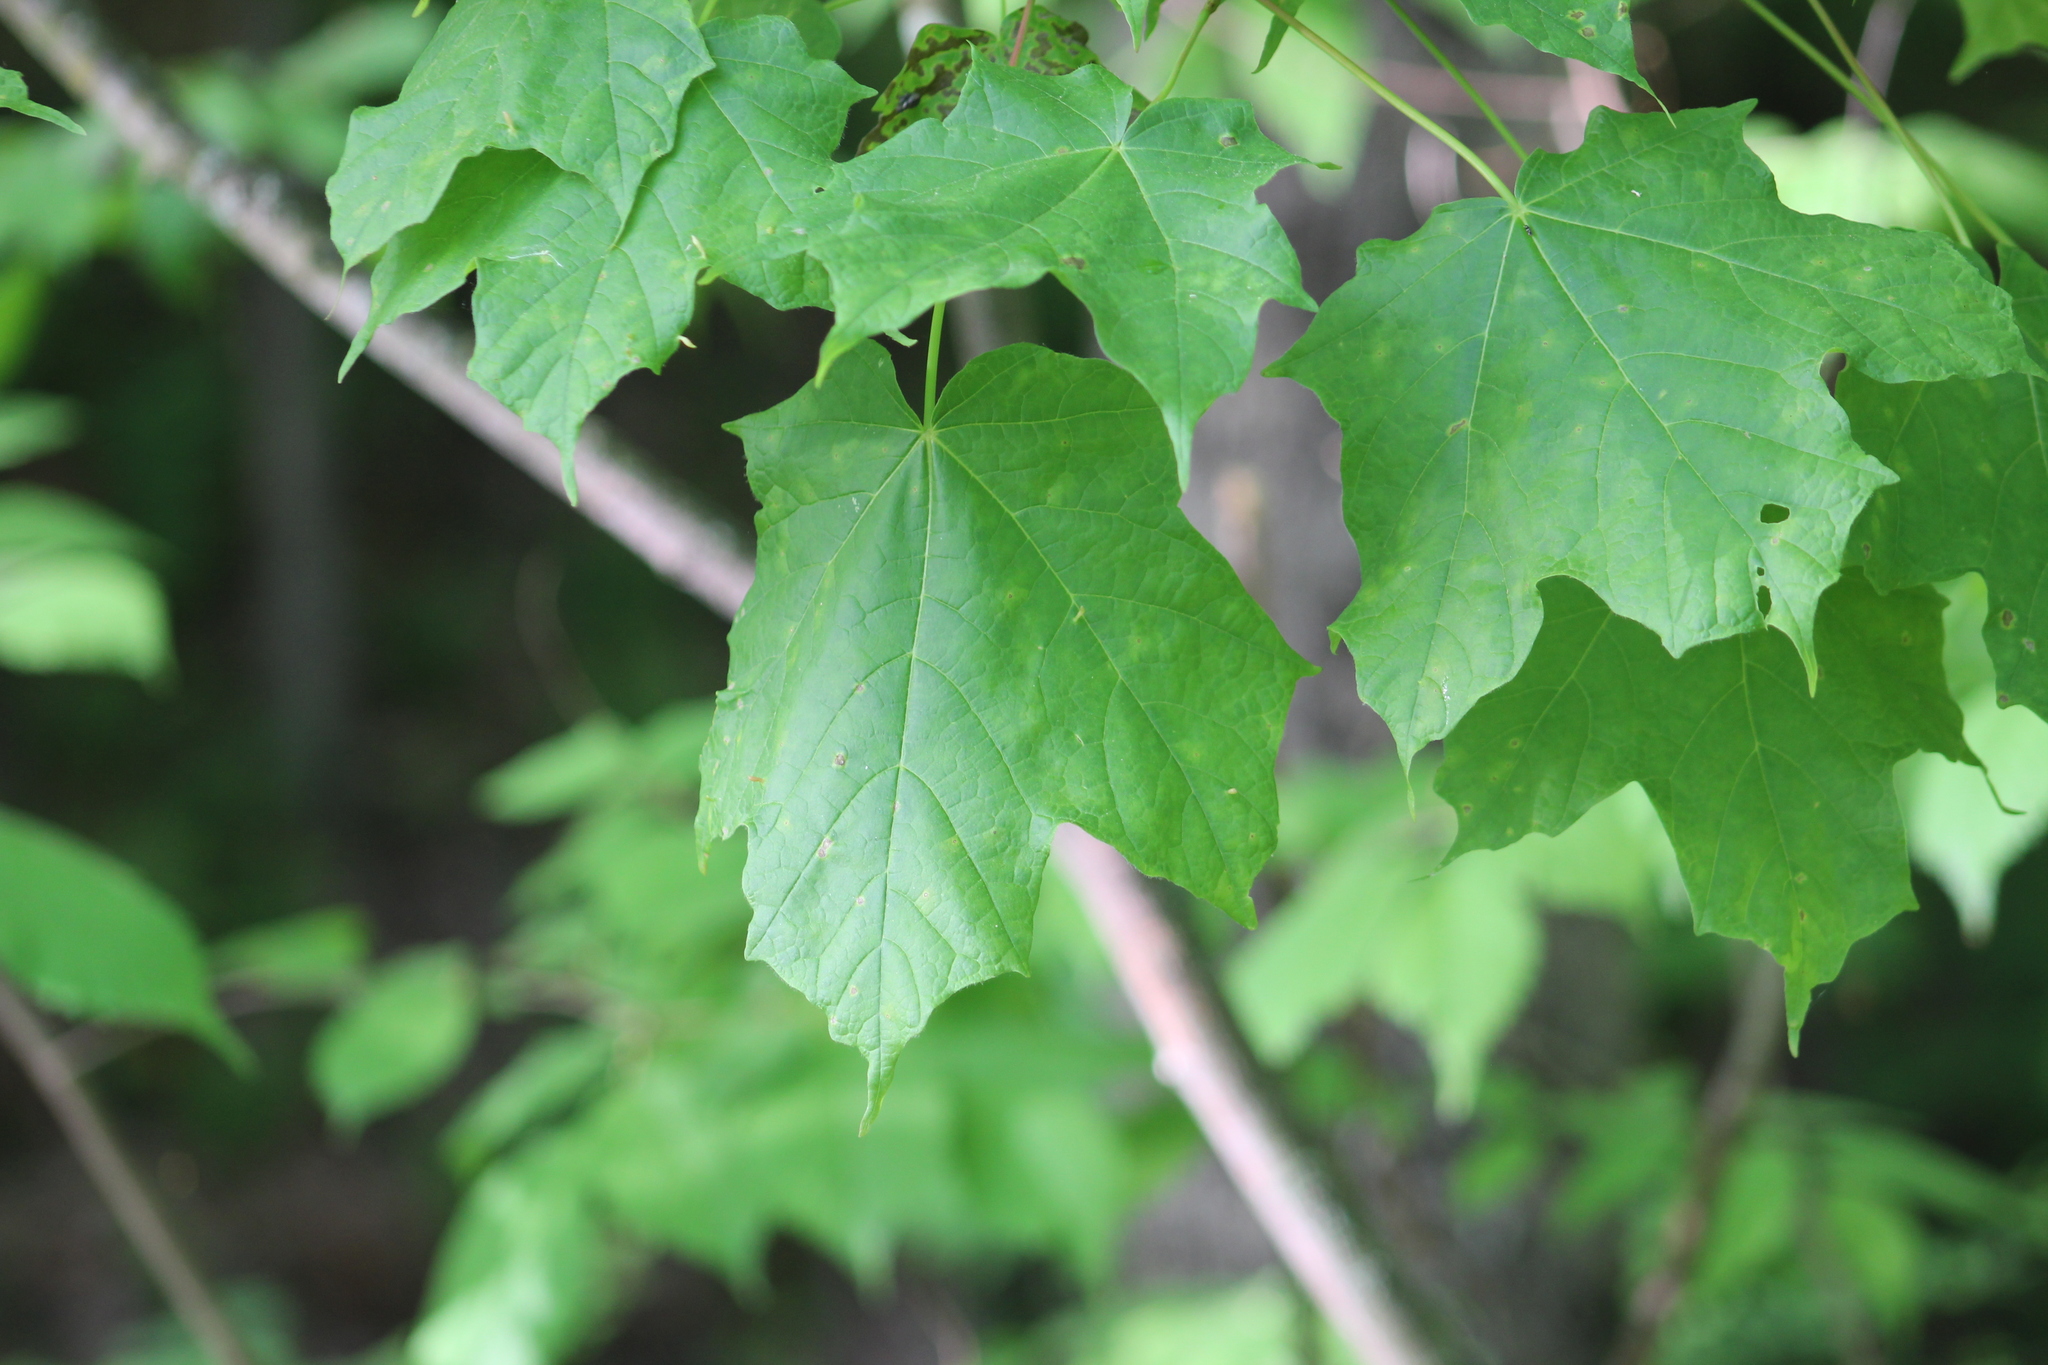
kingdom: Plantae
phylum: Tracheophyta
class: Magnoliopsida
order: Sapindales
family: Sapindaceae
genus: Acer
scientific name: Acer saccharum
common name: Sugar maple
